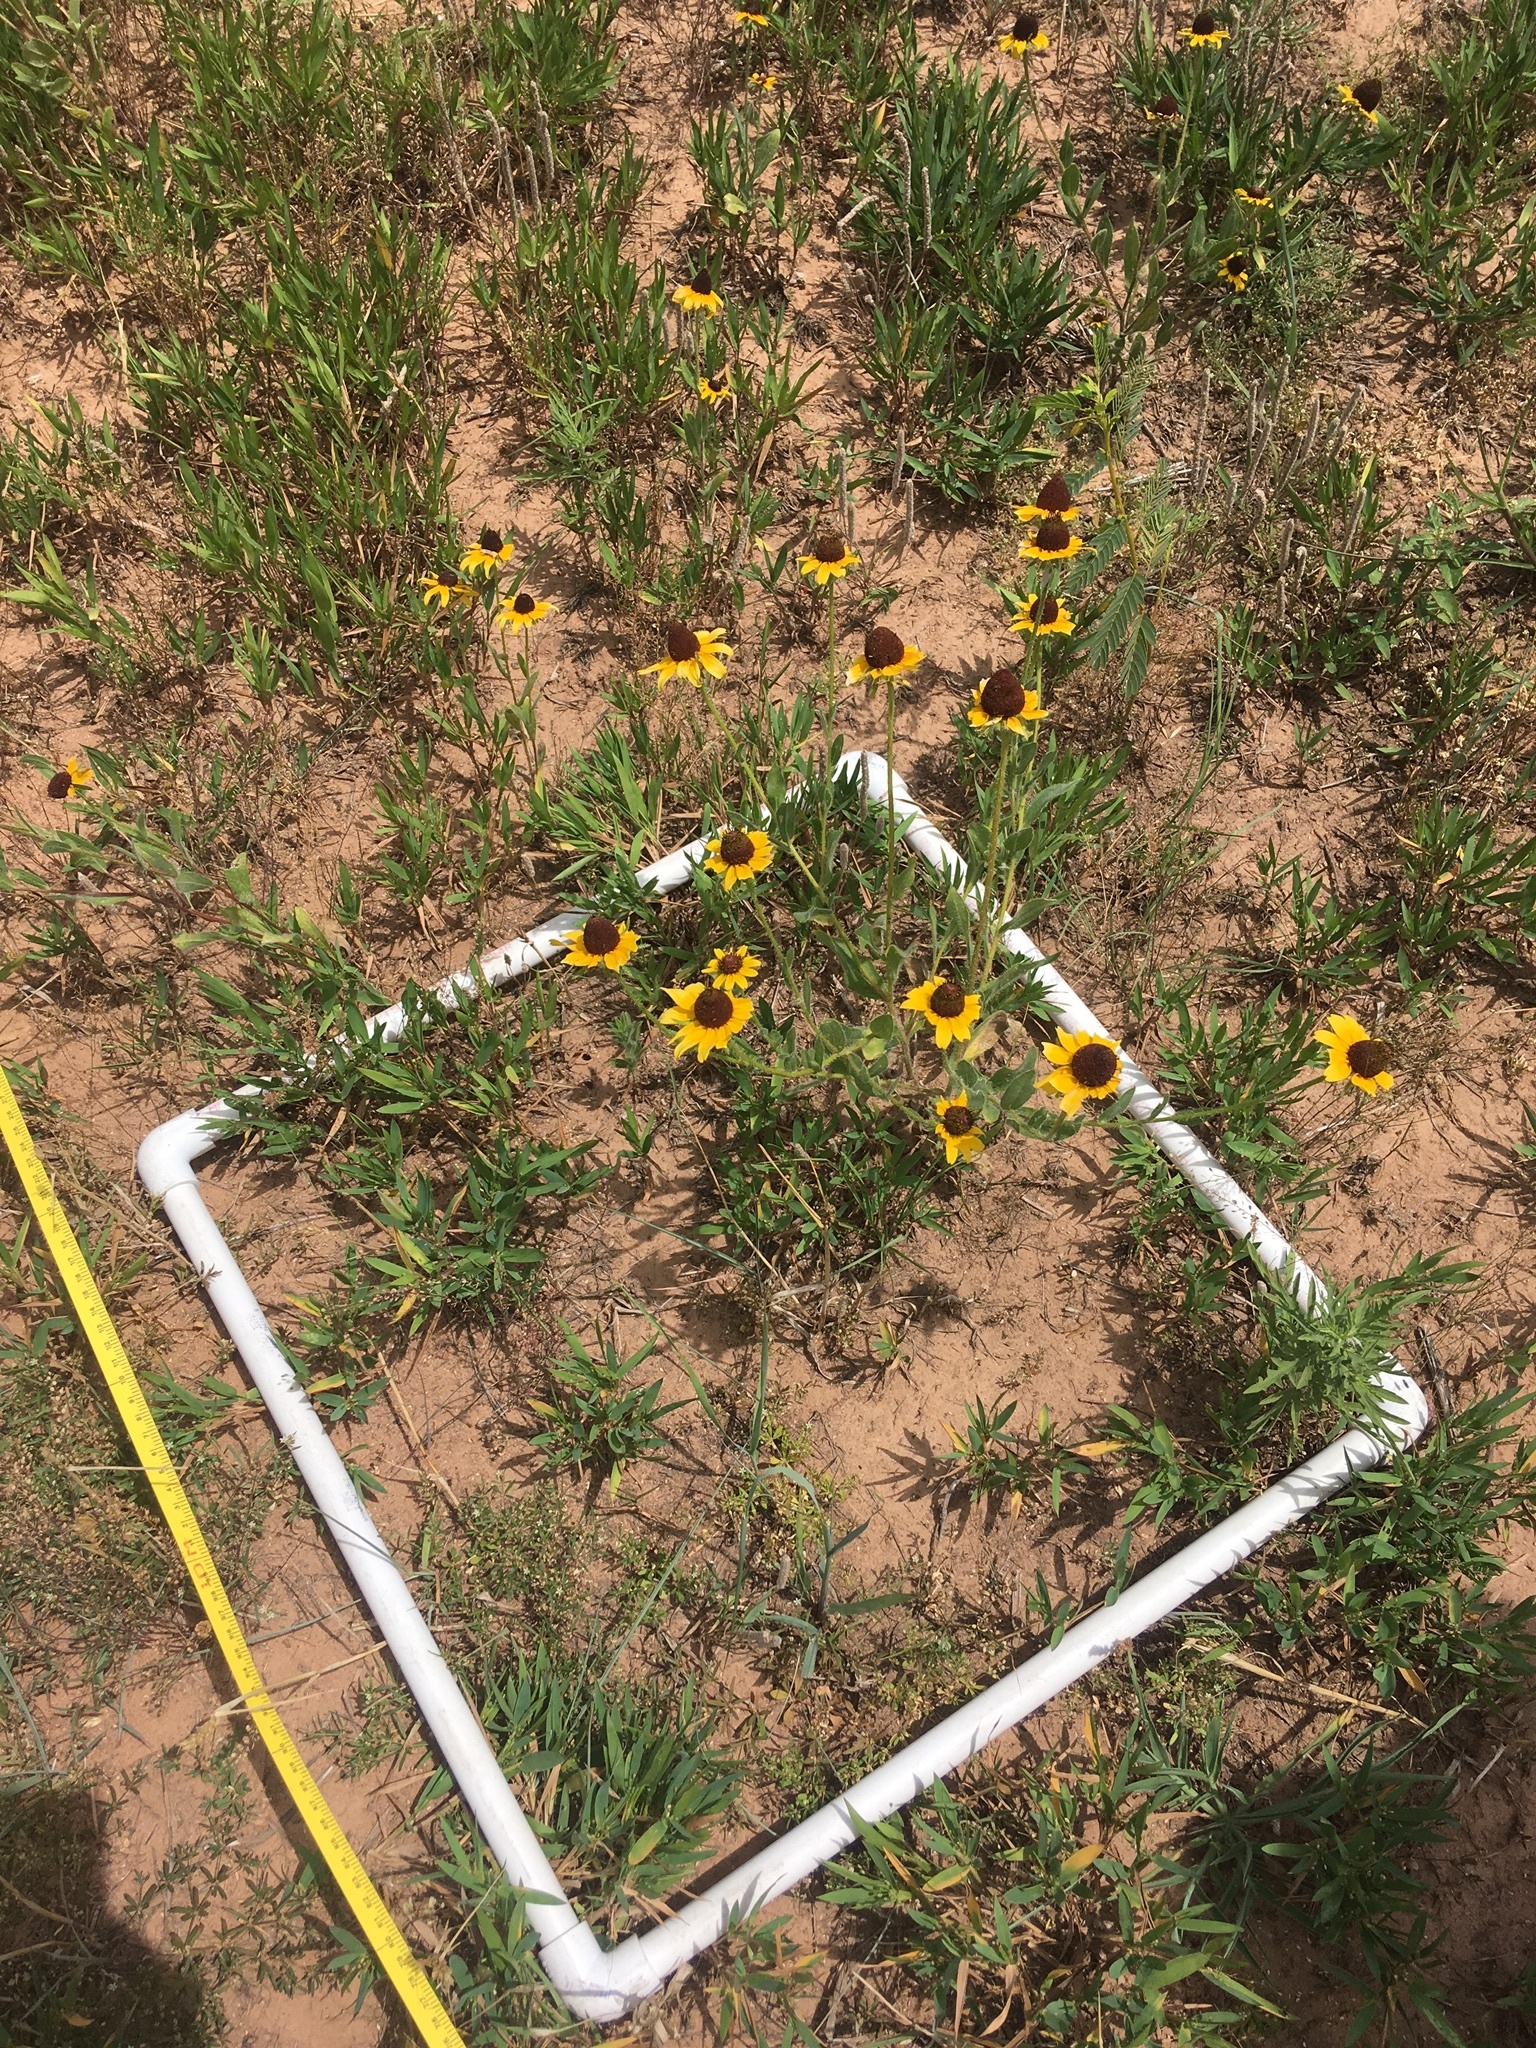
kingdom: Plantae
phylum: Tracheophyta
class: Magnoliopsida
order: Asterales
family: Asteraceae
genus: Rudbeckia
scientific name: Rudbeckia hirta
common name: Black-eyed-susan
